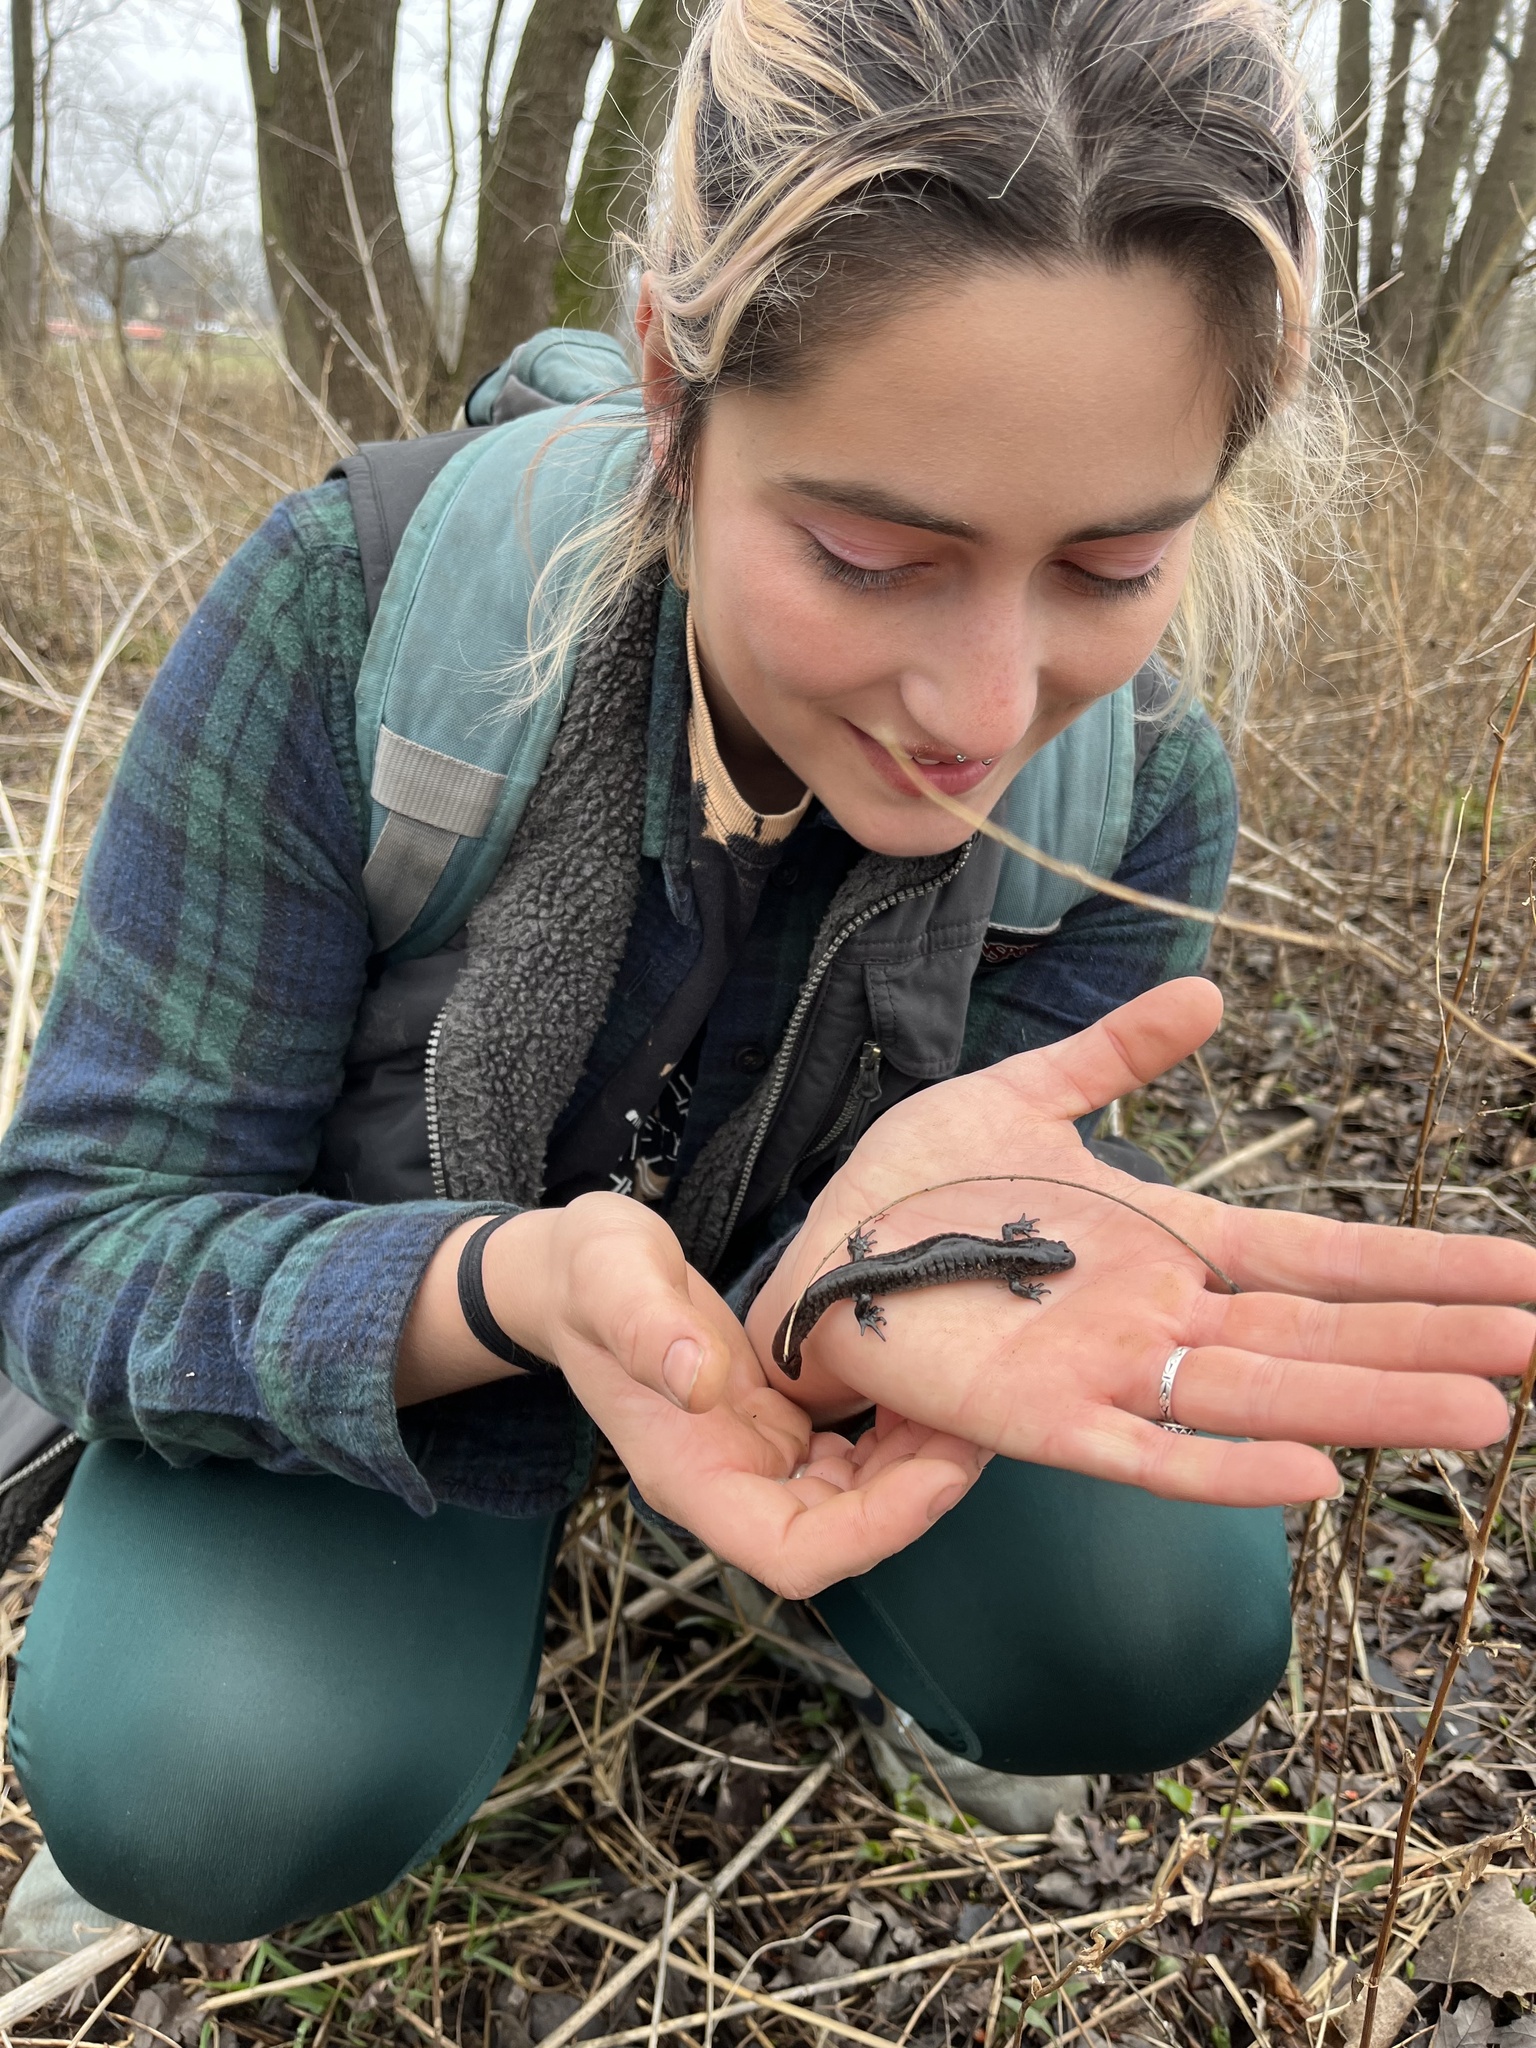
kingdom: Animalia
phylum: Chordata
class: Amphibia
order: Caudata
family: Ambystomatidae
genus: Ambystoma
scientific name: Ambystoma texanum
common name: Small-mouth salamander
